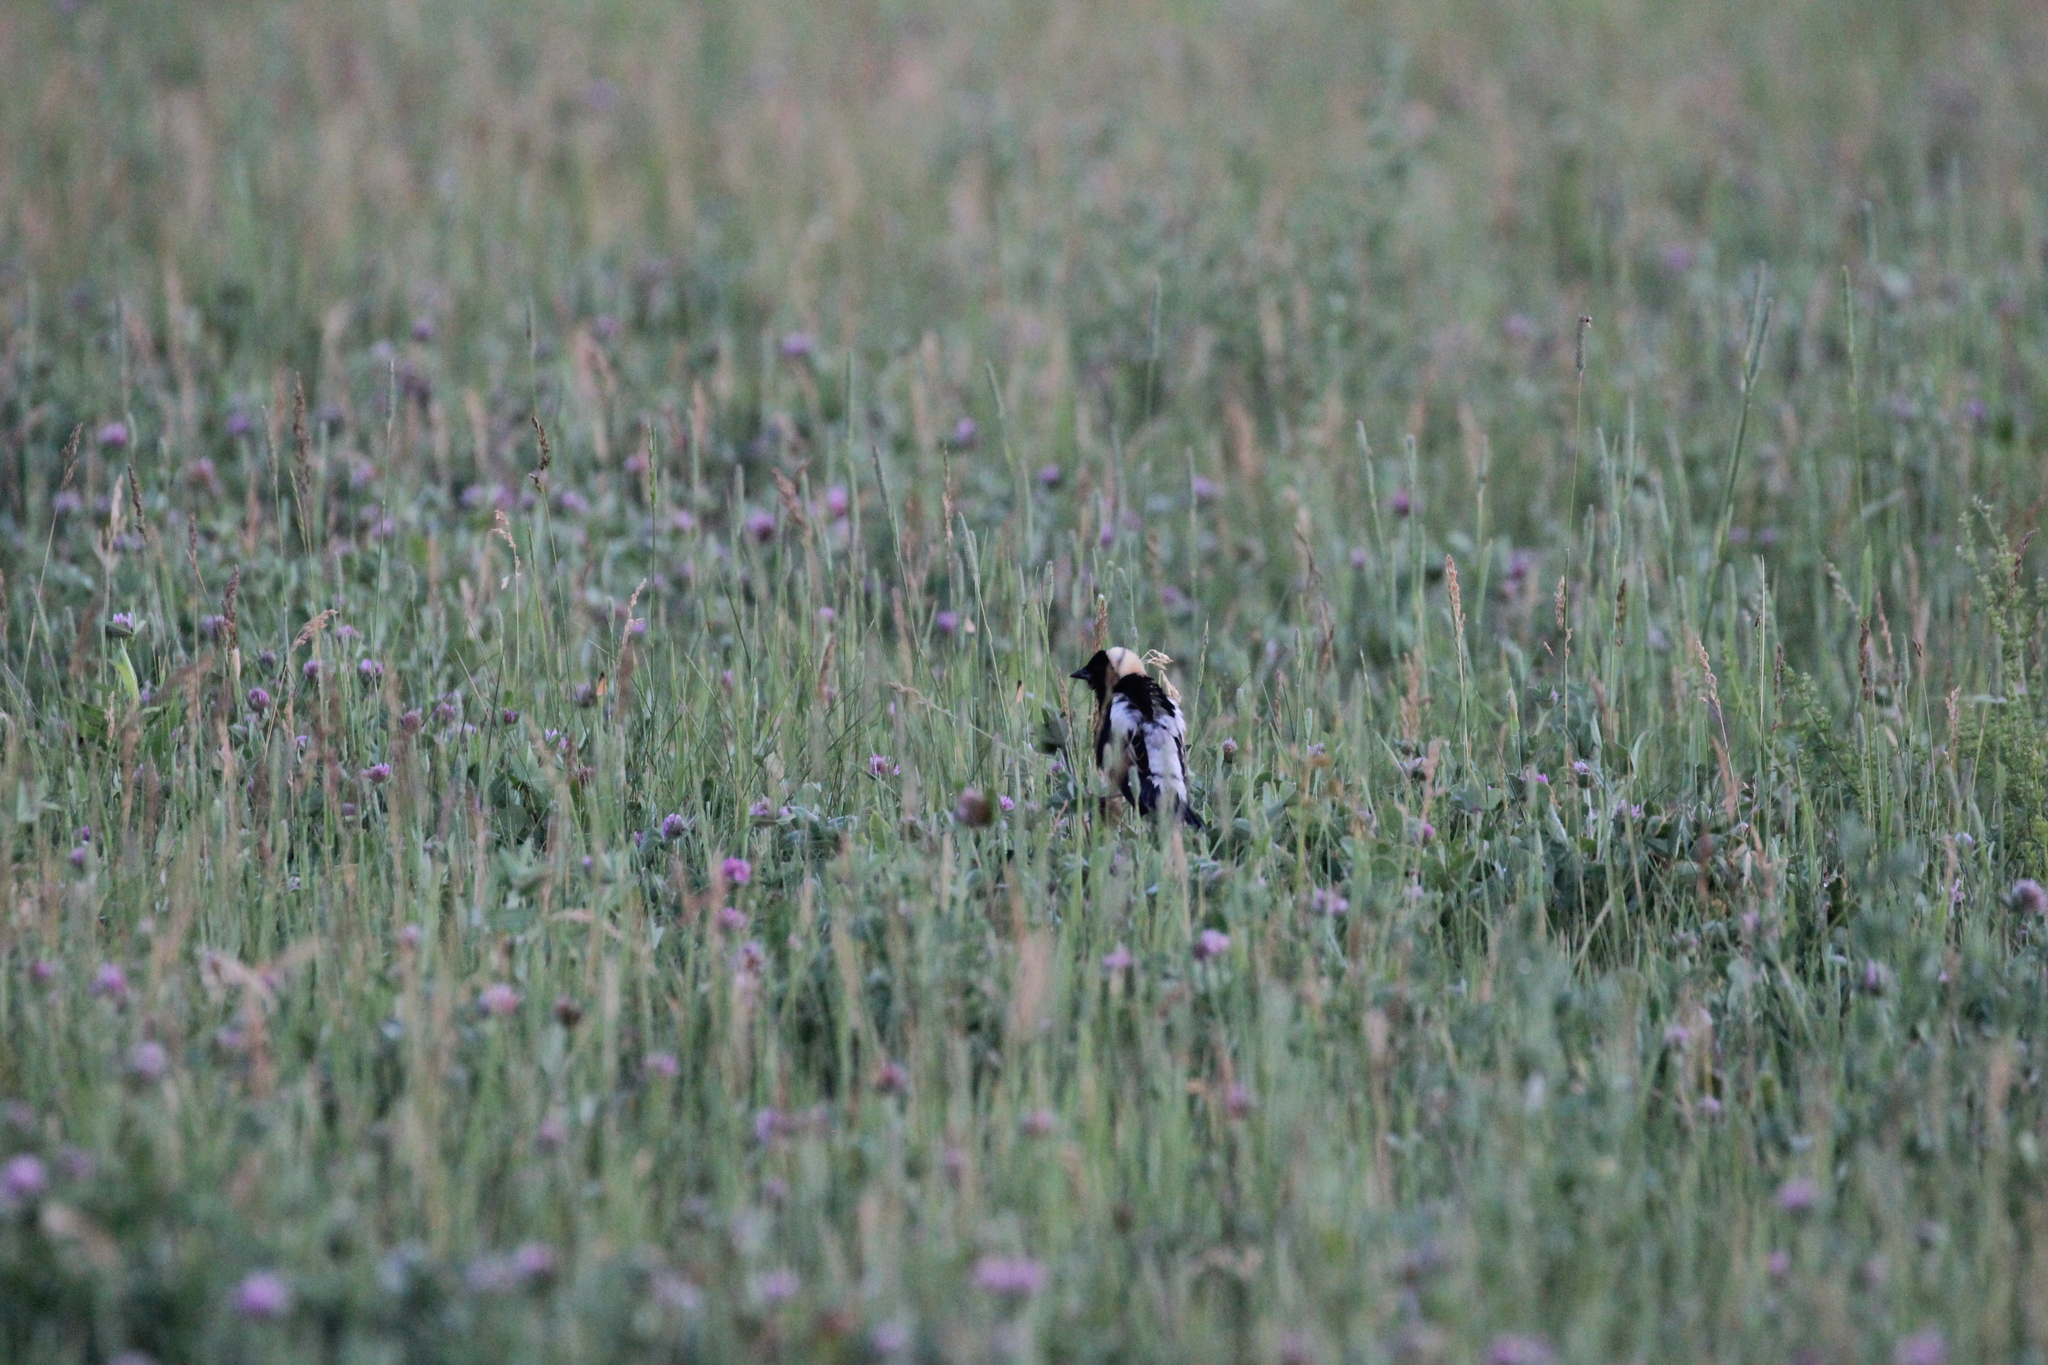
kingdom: Animalia
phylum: Chordata
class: Aves
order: Passeriformes
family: Icteridae
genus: Dolichonyx
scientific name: Dolichonyx oryzivorus
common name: Bobolink
